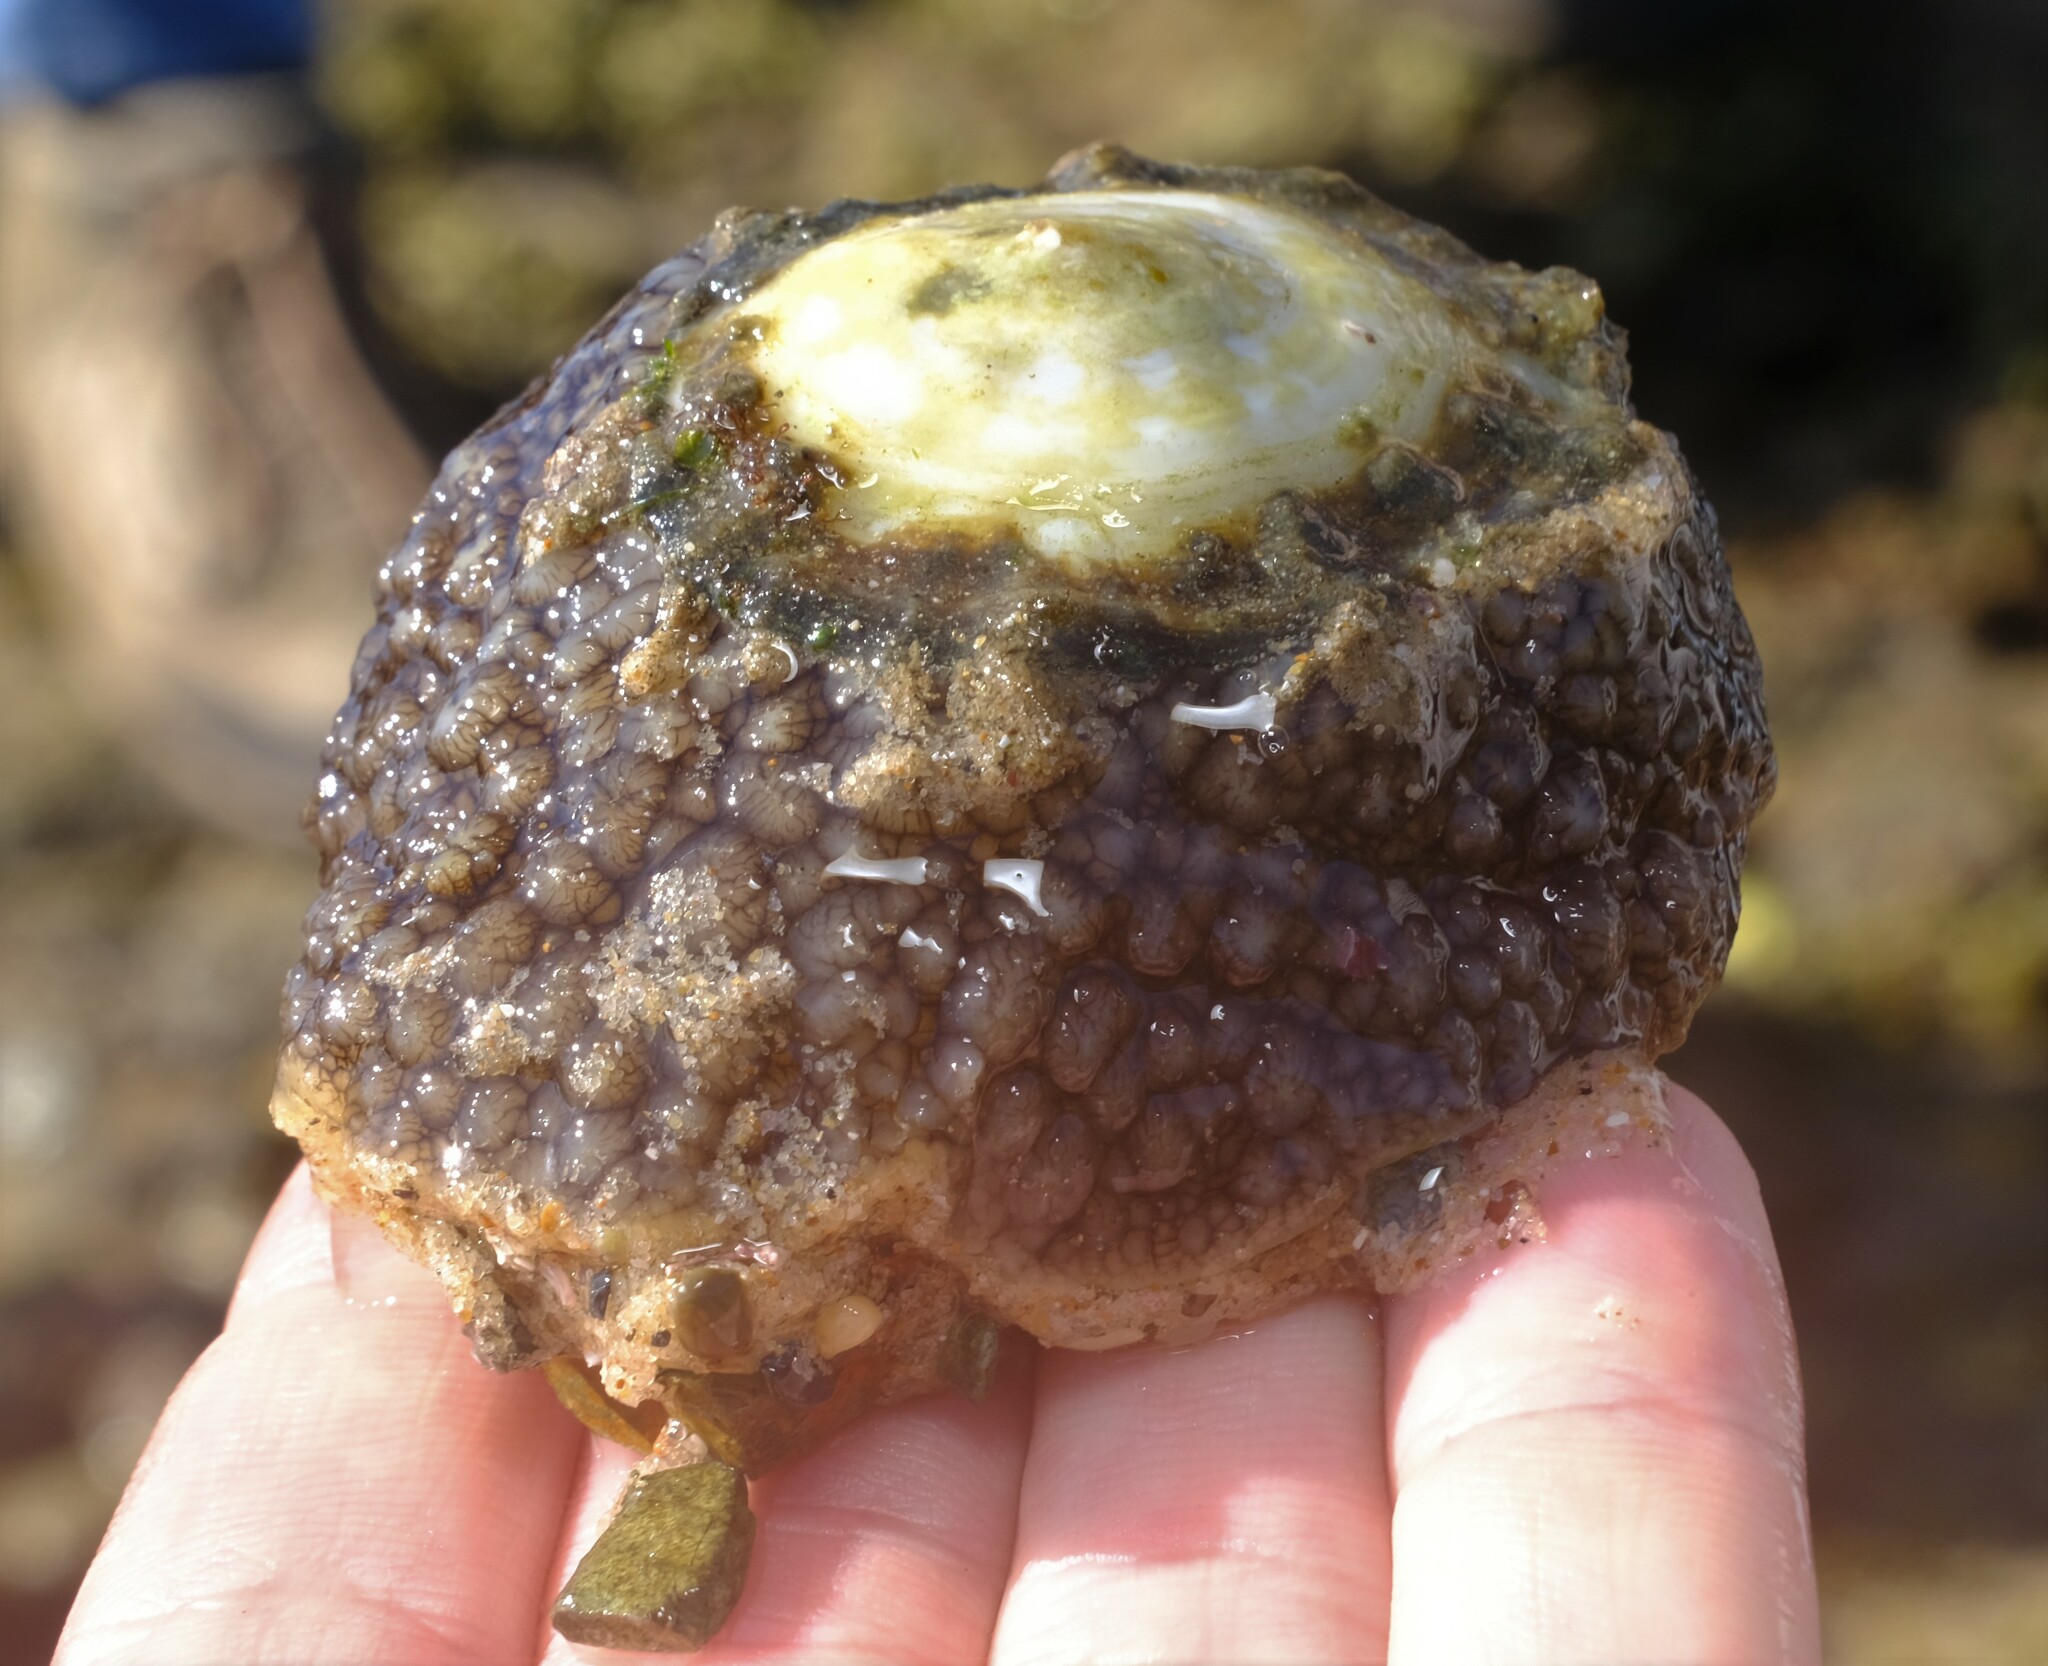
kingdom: Animalia
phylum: Mollusca
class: Gastropoda
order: Umbraculida
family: Umbraculidae
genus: Umbraculum
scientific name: Umbraculum umbraculum
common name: Atlantic umbrella slug
